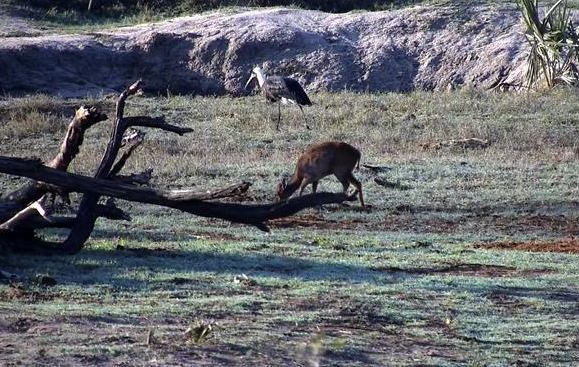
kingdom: Animalia
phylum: Chordata
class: Aves
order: Ciconiiformes
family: Ciconiidae
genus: Ciconia
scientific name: Ciconia microscelis
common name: African woollyneck
